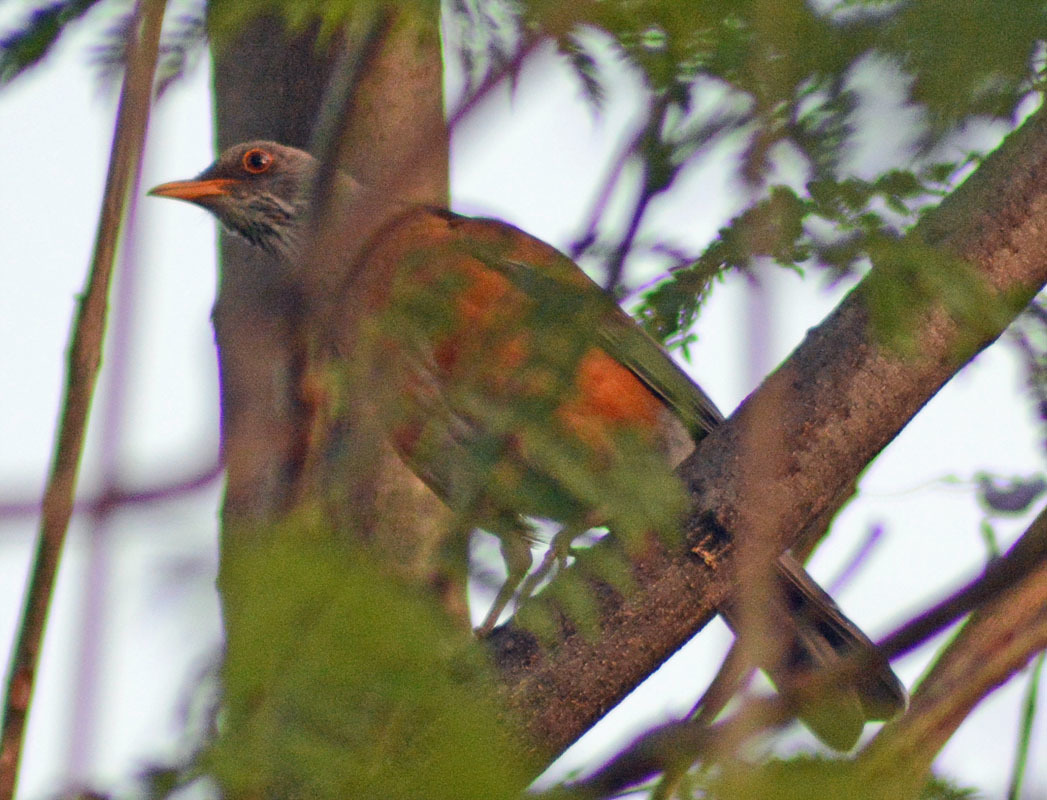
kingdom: Animalia
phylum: Chordata
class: Aves
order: Passeriformes
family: Turdidae
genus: Turdus
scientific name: Turdus rufopalliatus
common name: Rufous-backed robin
